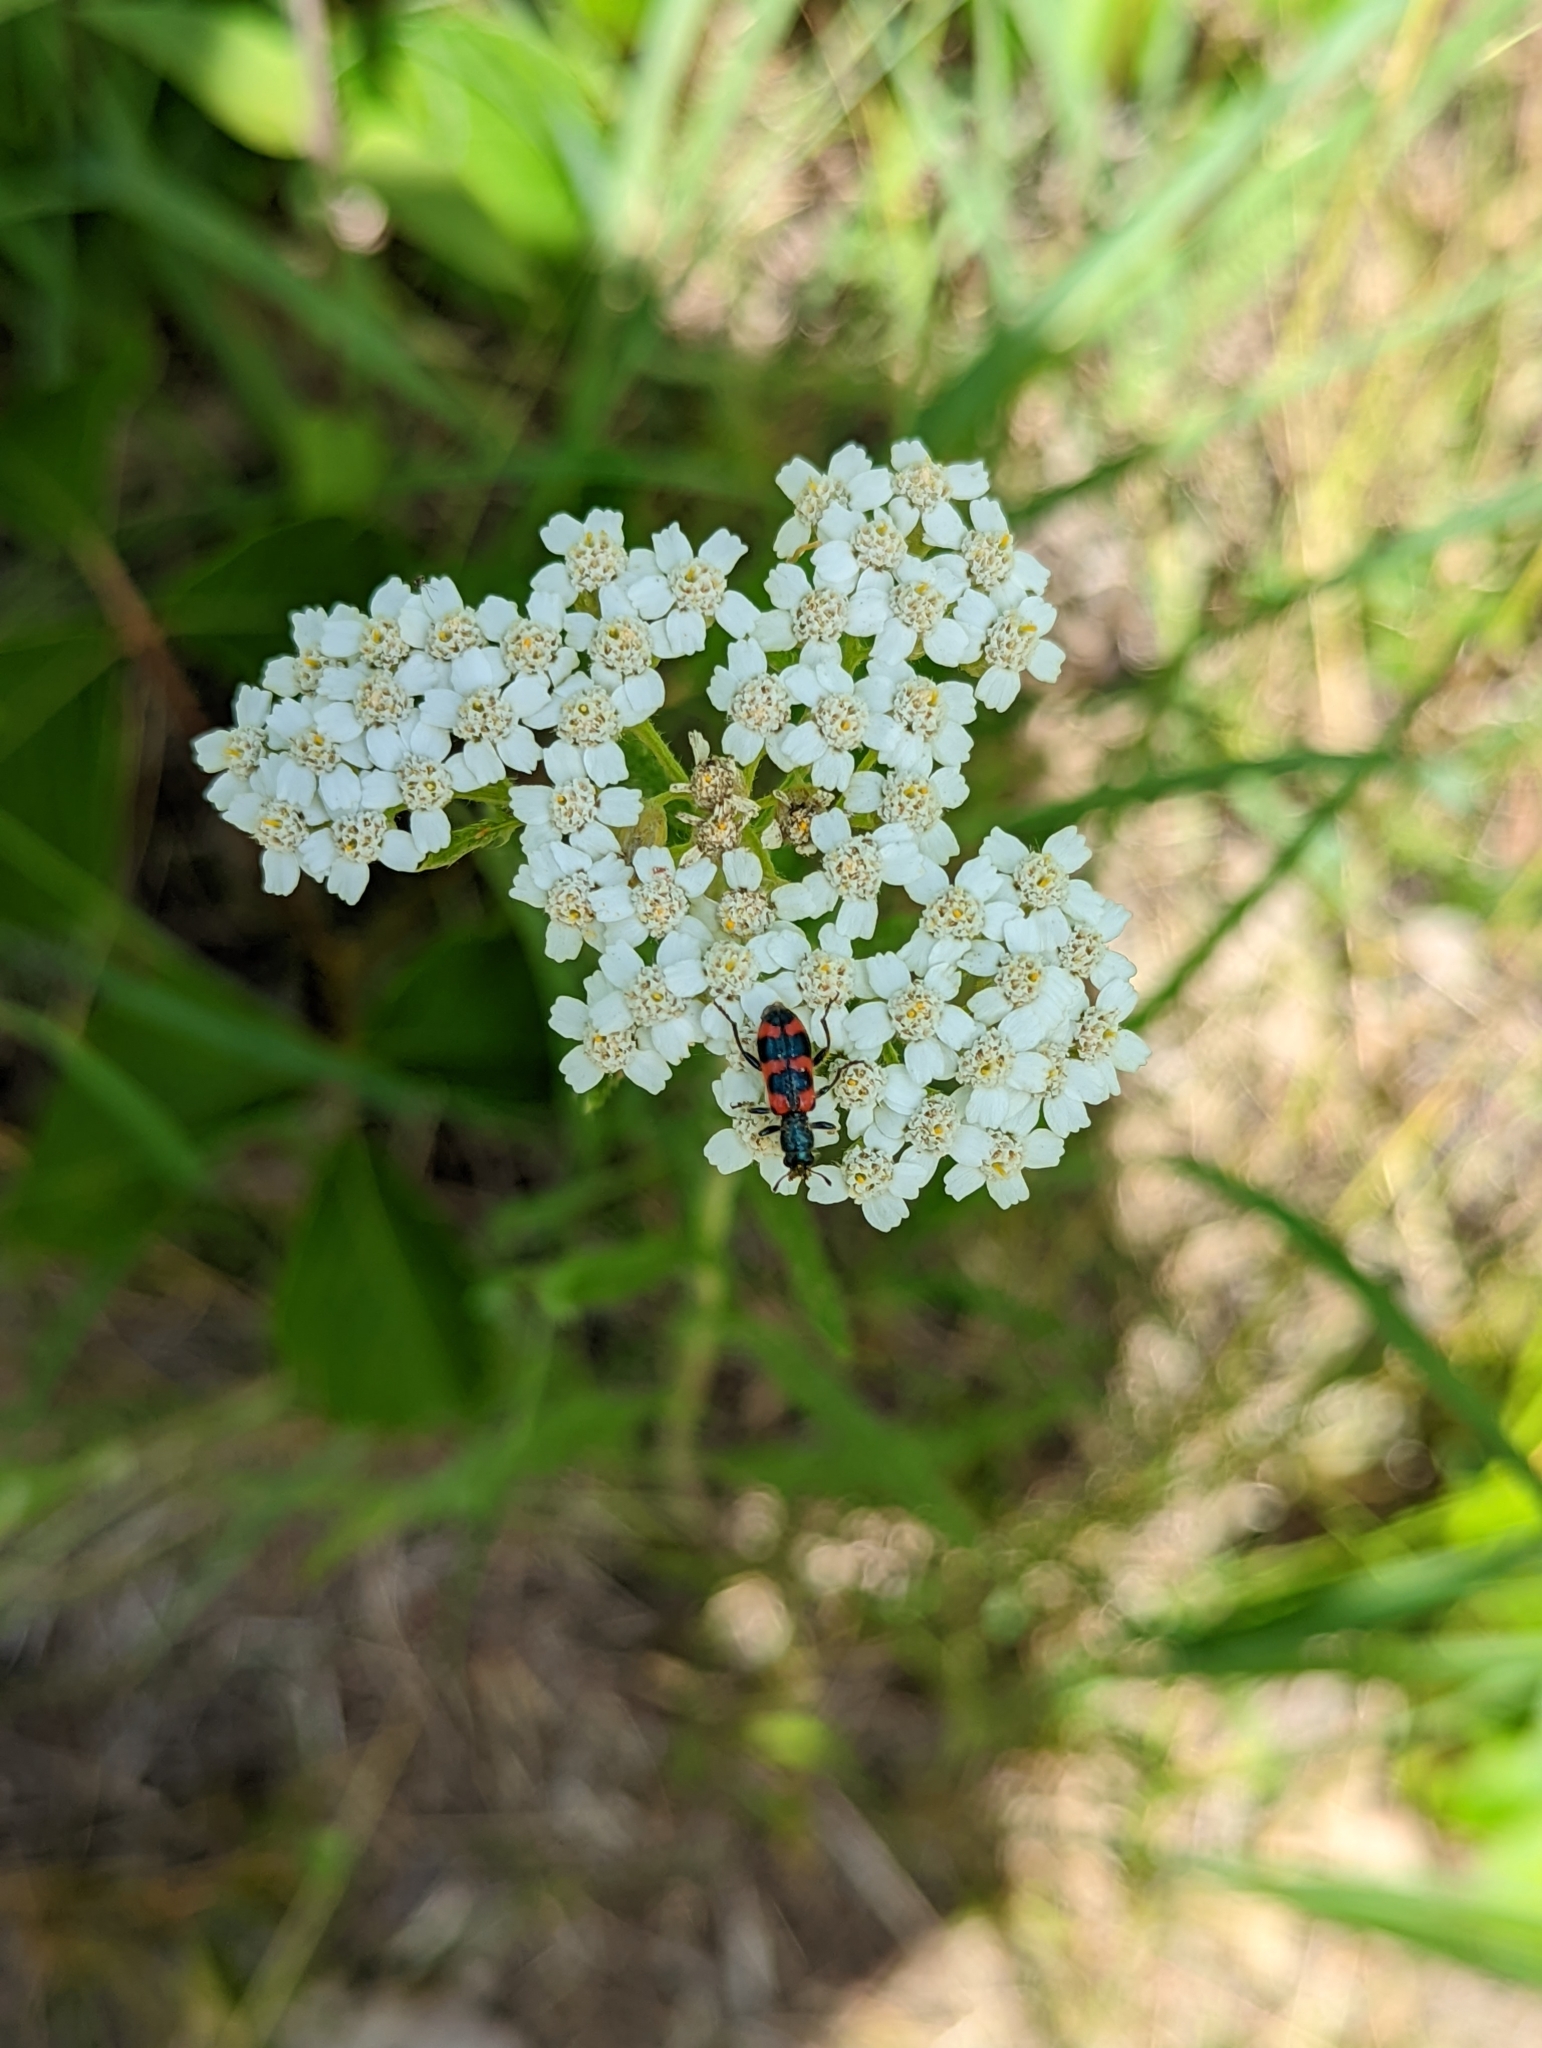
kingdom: Animalia
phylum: Arthropoda
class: Insecta
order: Coleoptera
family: Cleridae
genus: Trichodes
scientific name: Trichodes nutalli
